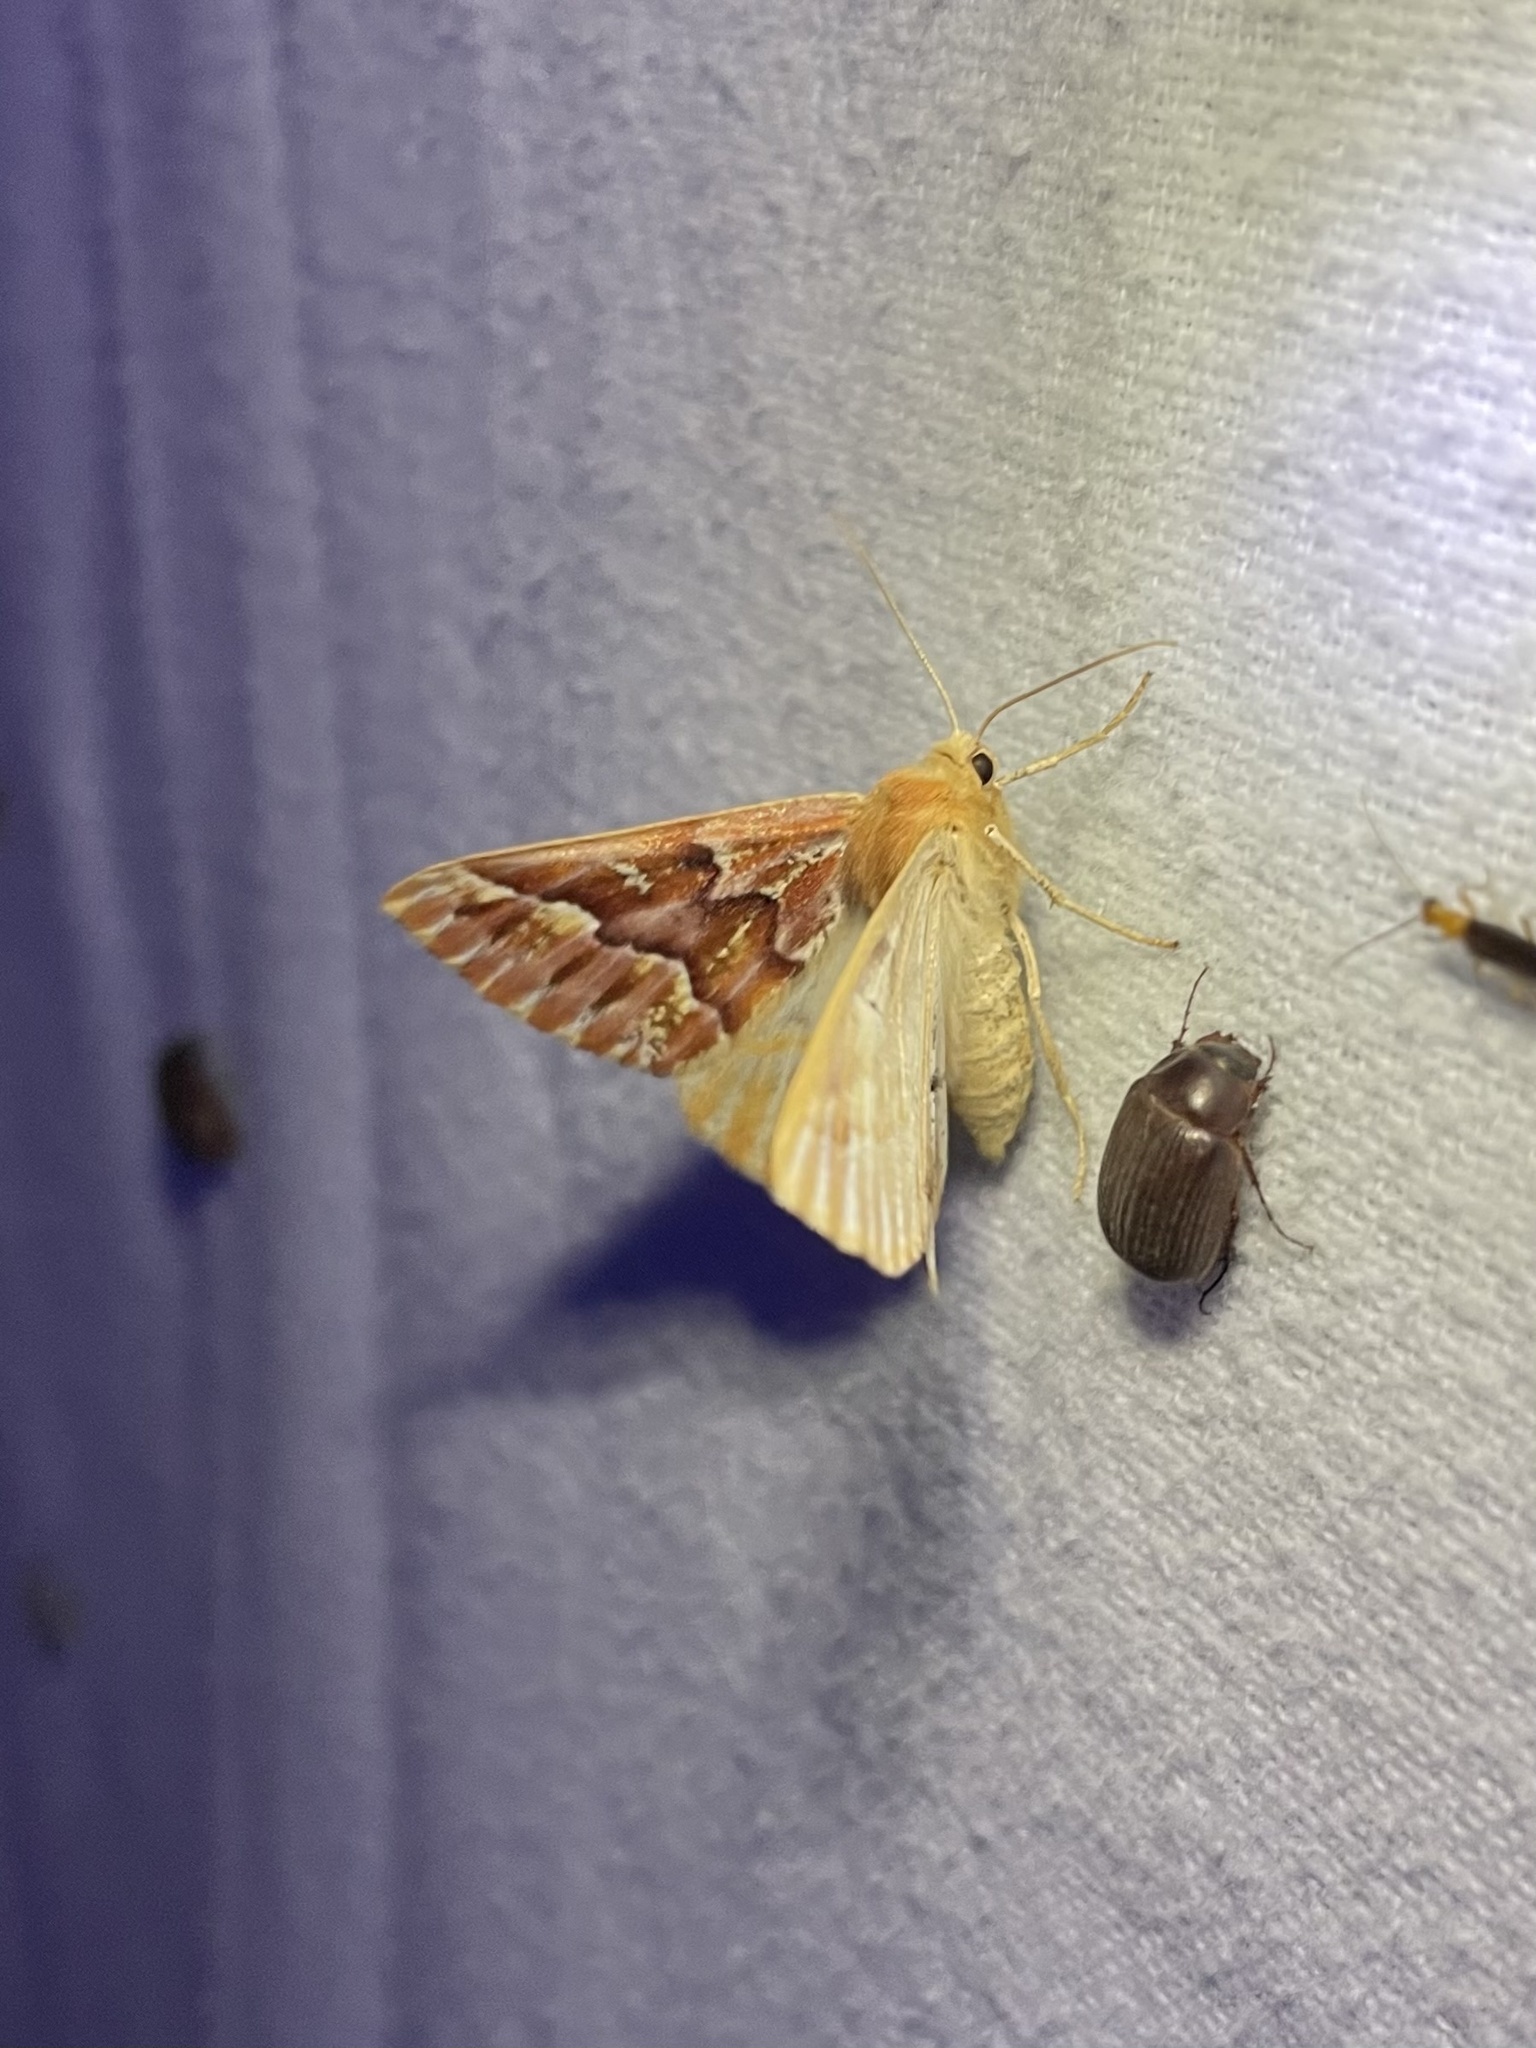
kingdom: Animalia
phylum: Arthropoda
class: Insecta
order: Lepidoptera
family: Geometridae
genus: Caripeta
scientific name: Caripeta aequaliaria
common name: Red girdle moth
